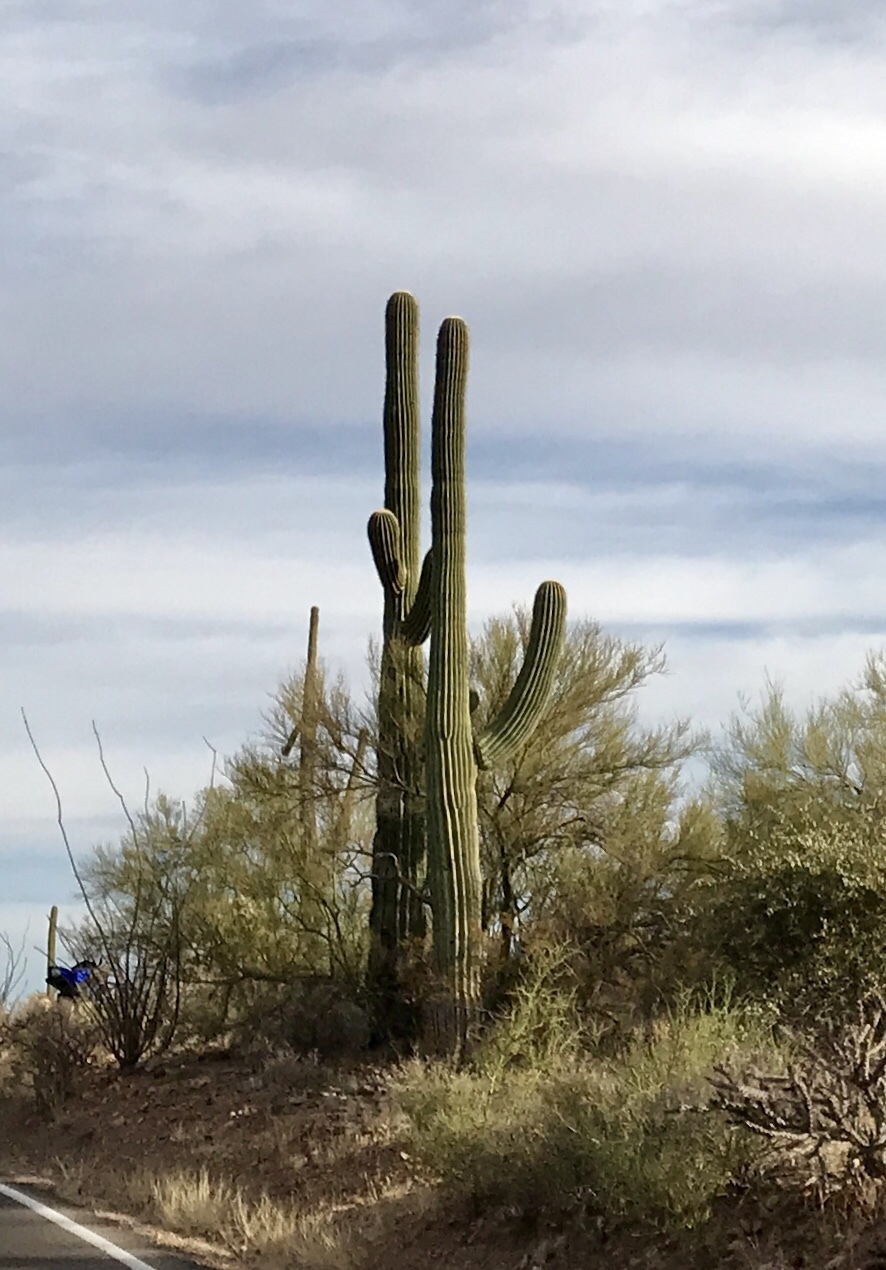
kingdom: Plantae
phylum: Tracheophyta
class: Magnoliopsida
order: Caryophyllales
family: Cactaceae
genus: Carnegiea
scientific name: Carnegiea gigantea
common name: Saguaro
